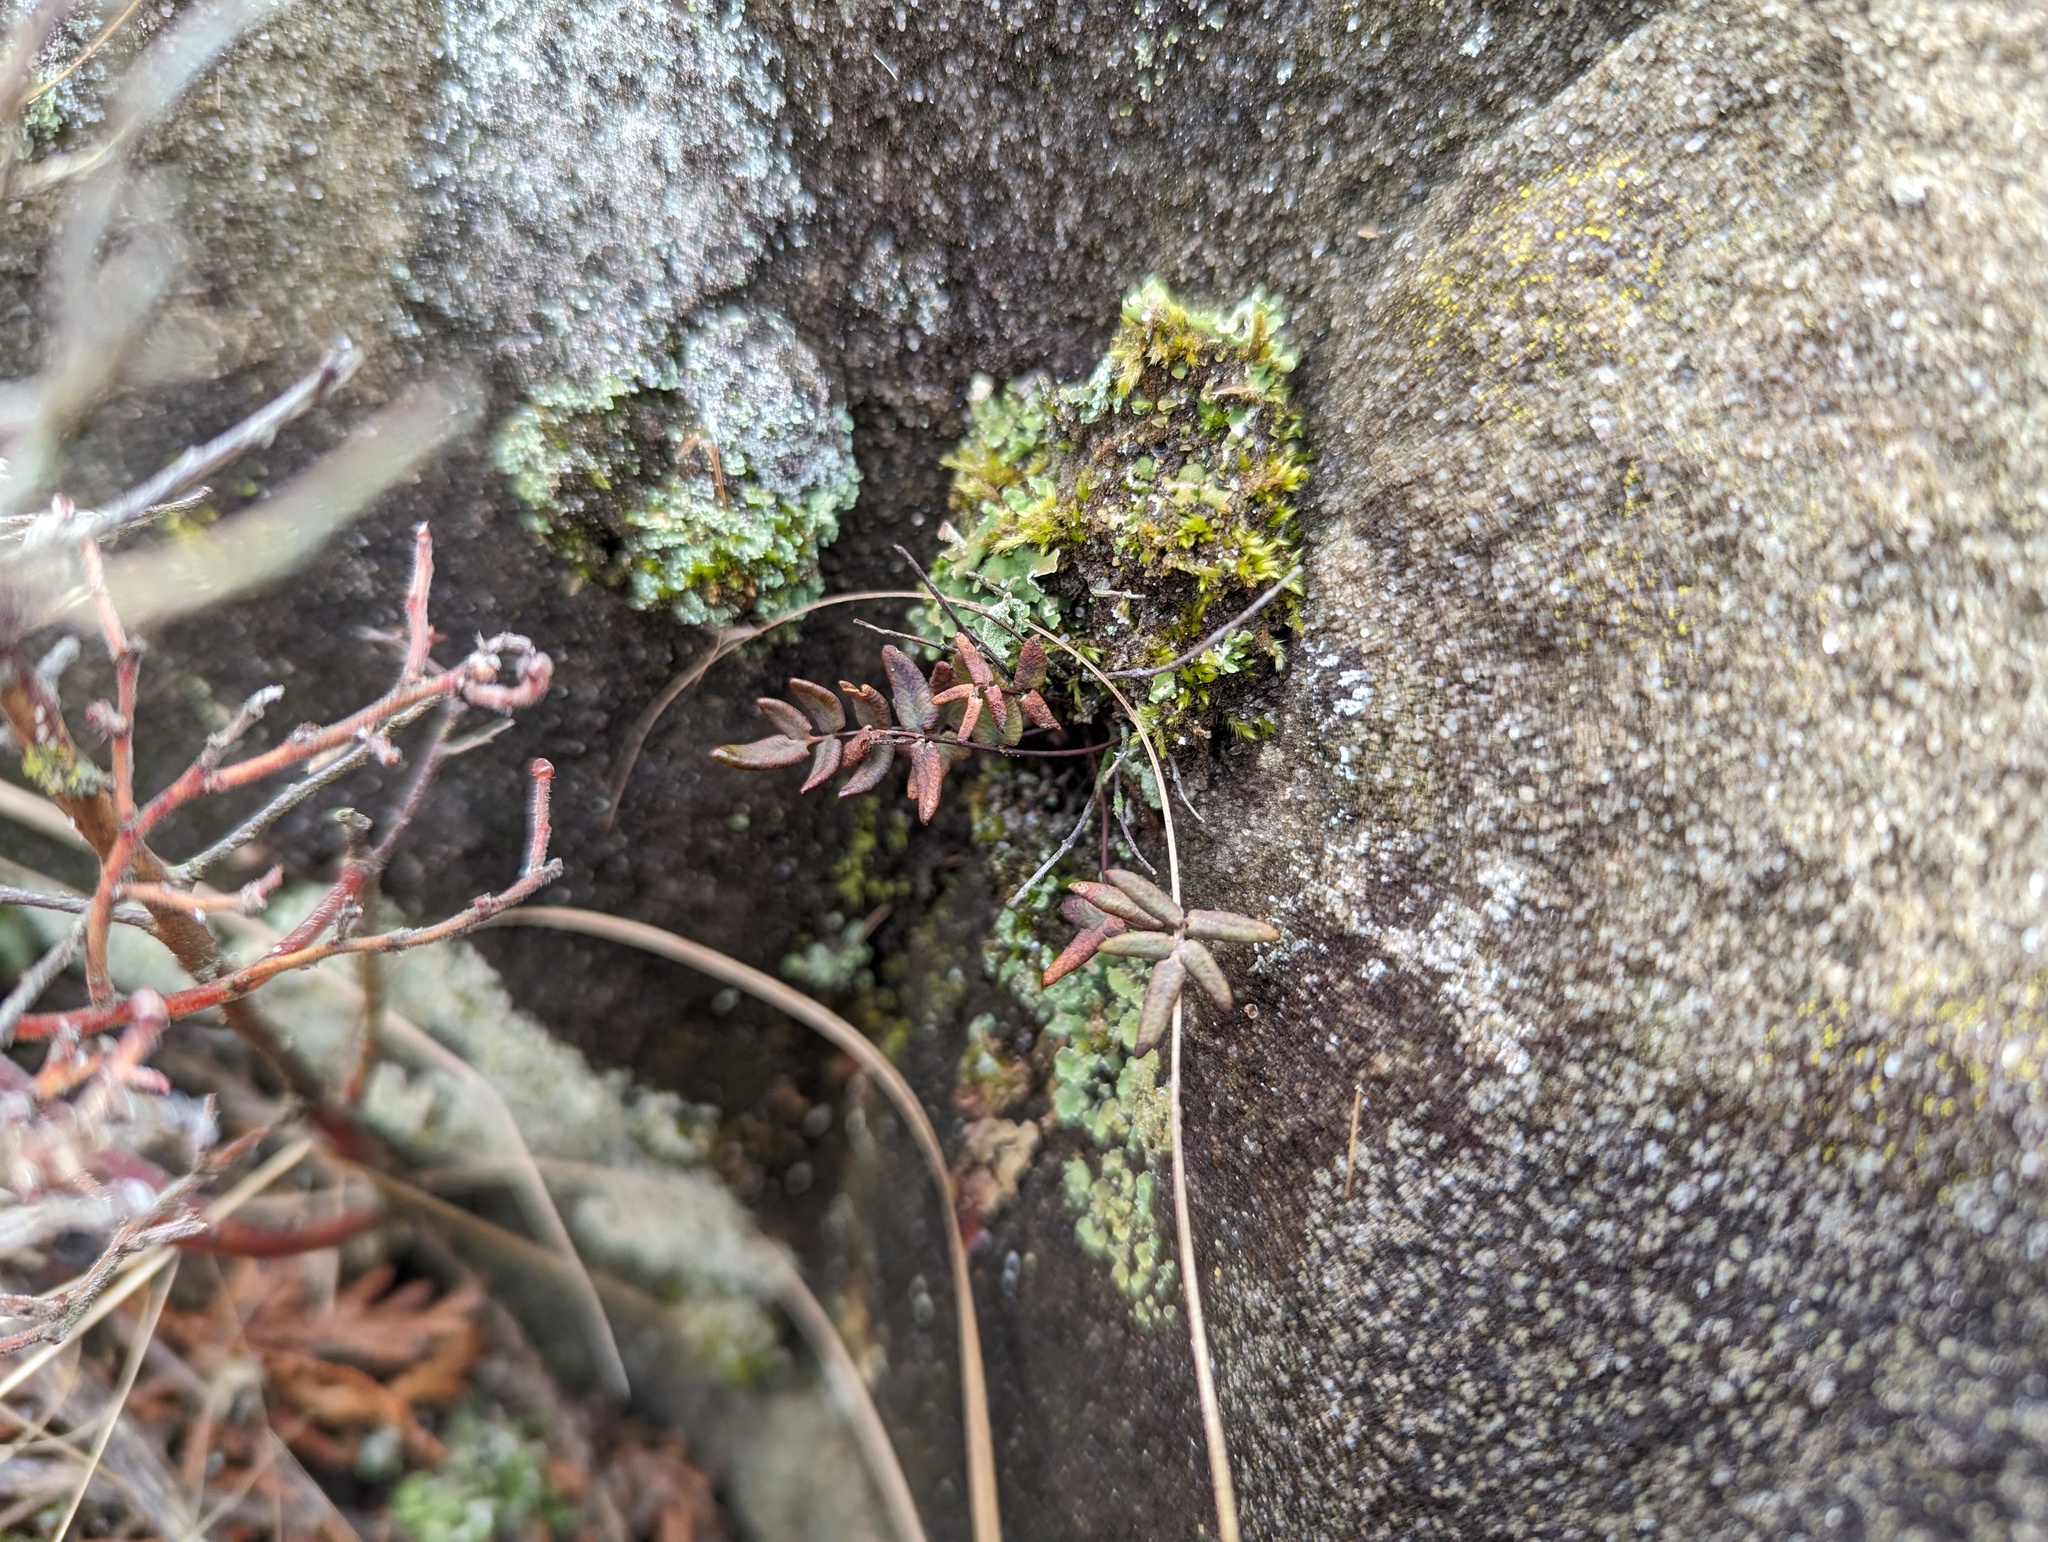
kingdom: Plantae
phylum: Tracheophyta
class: Polypodiopsida
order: Polypodiales
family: Pteridaceae
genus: Pellaea
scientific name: Pellaea glabella
